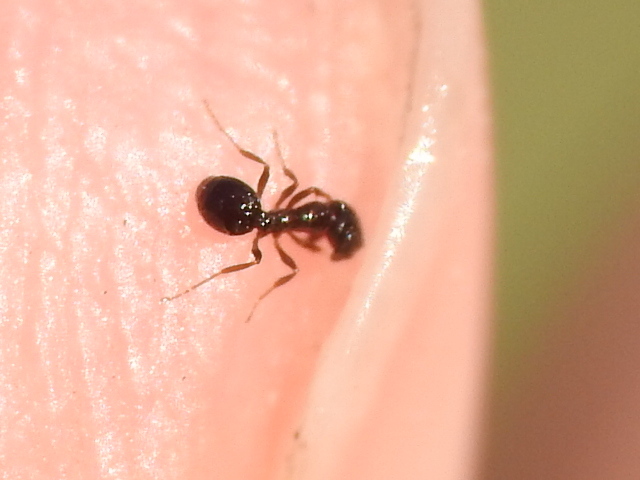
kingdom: Animalia
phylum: Arthropoda
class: Insecta
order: Hymenoptera
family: Formicidae
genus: Monomorium
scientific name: Monomorium minimum
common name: Little black ant
